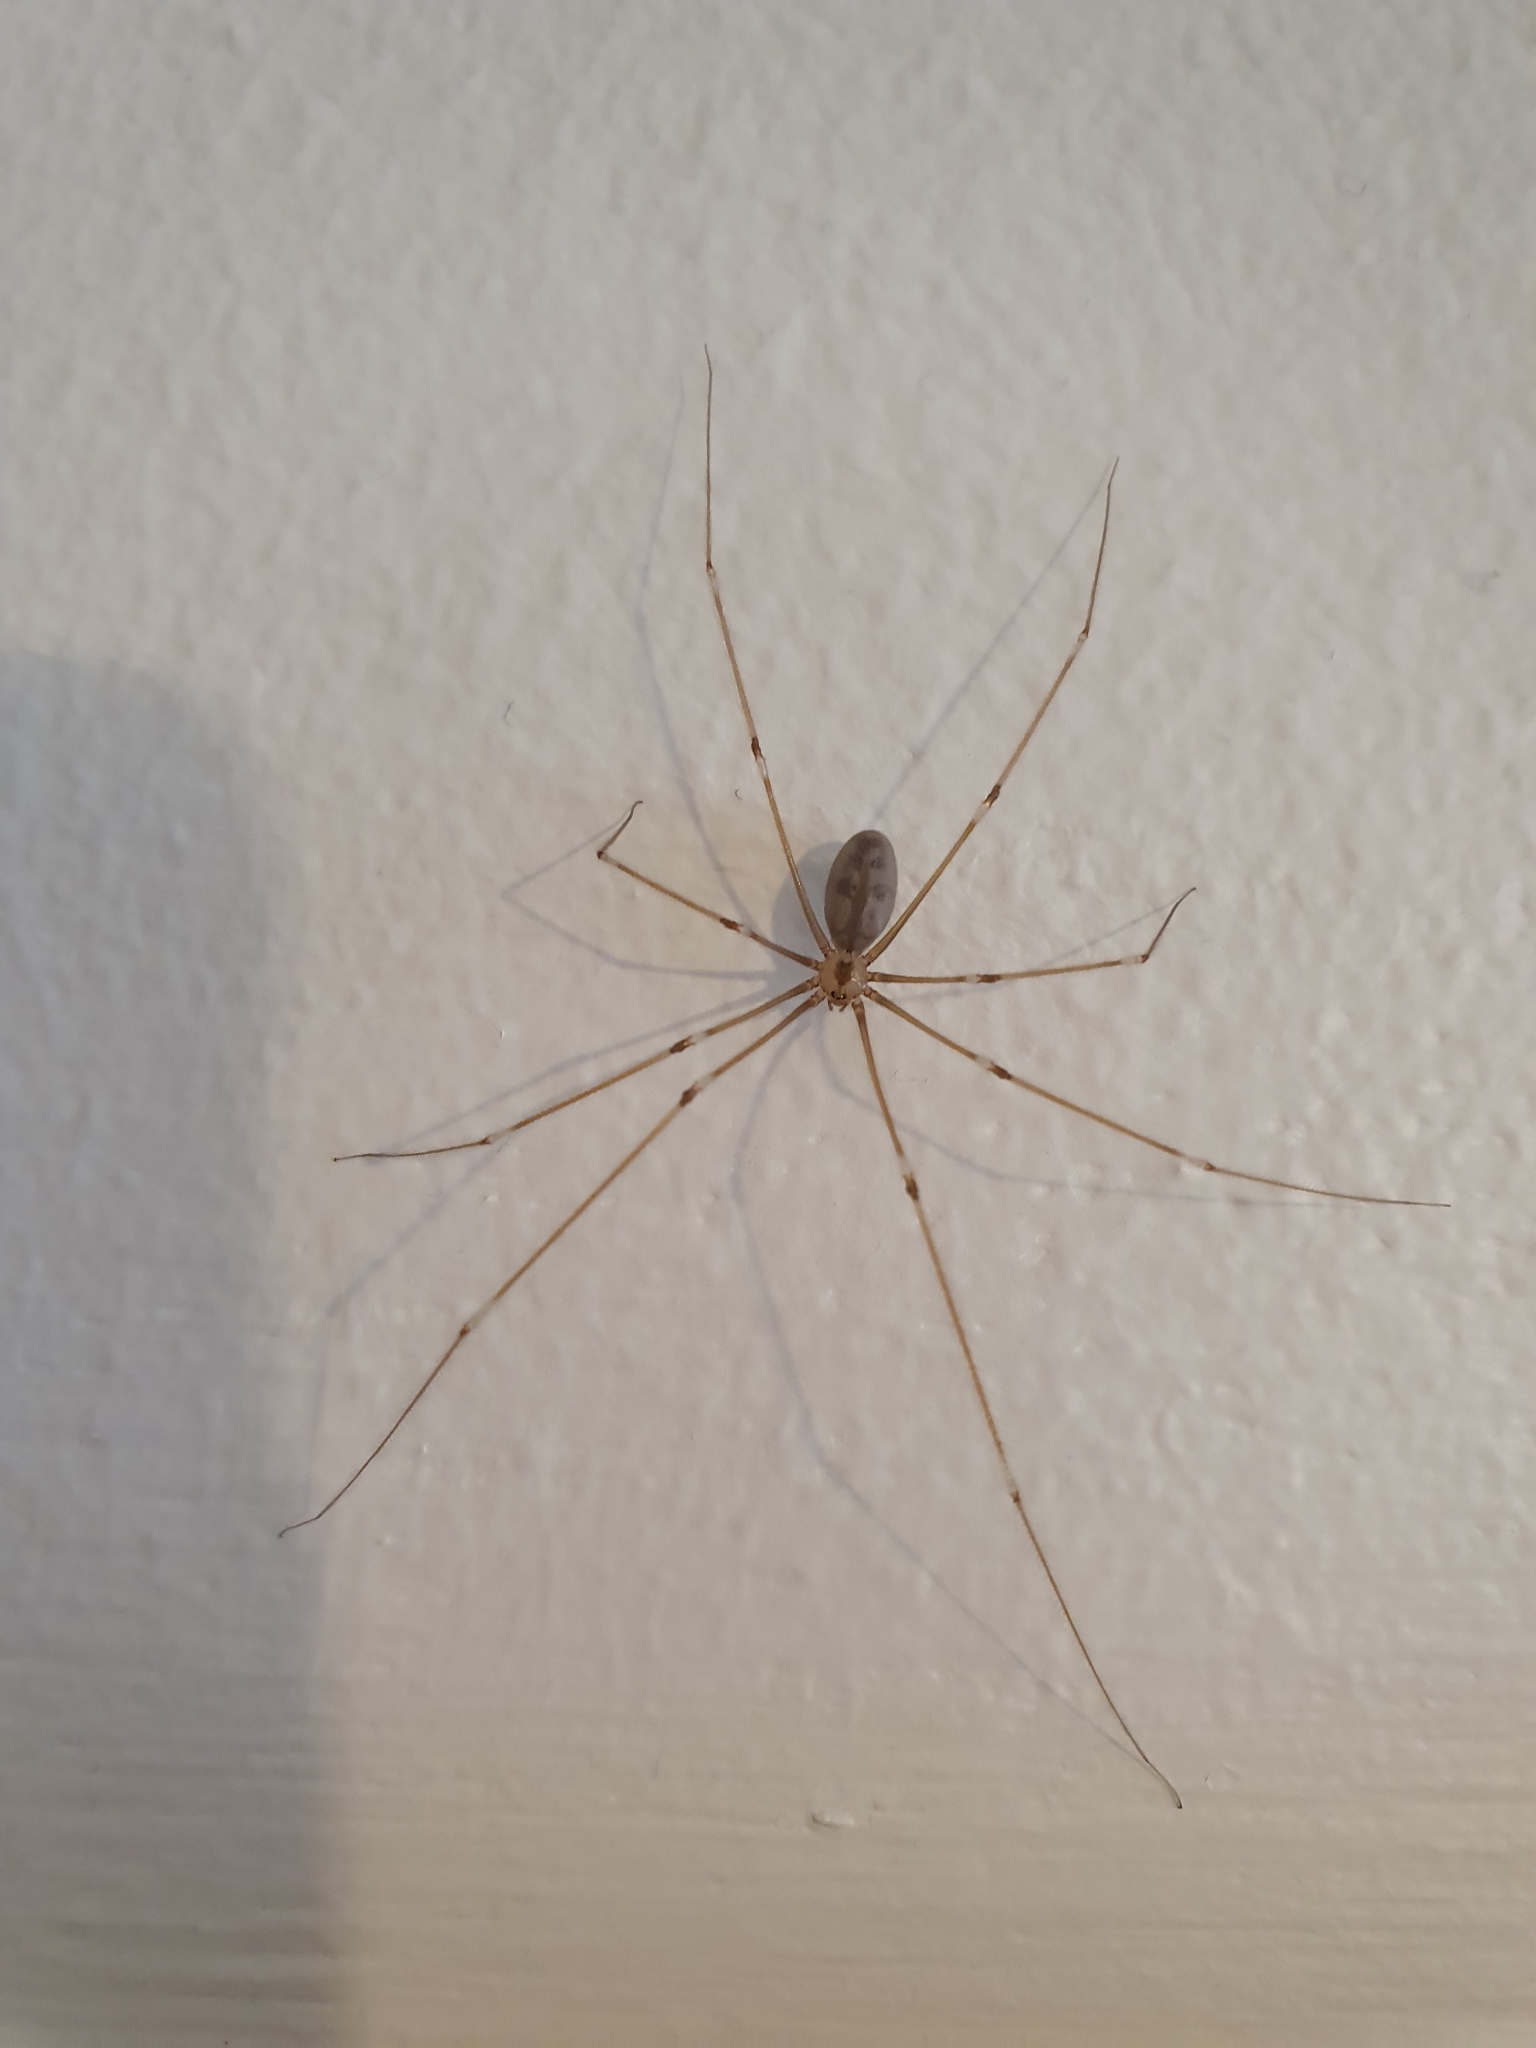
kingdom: Animalia
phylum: Arthropoda
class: Arachnida
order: Araneae
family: Pholcidae
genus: Pholcus
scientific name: Pholcus phalangioides
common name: Longbodied cellar spider
